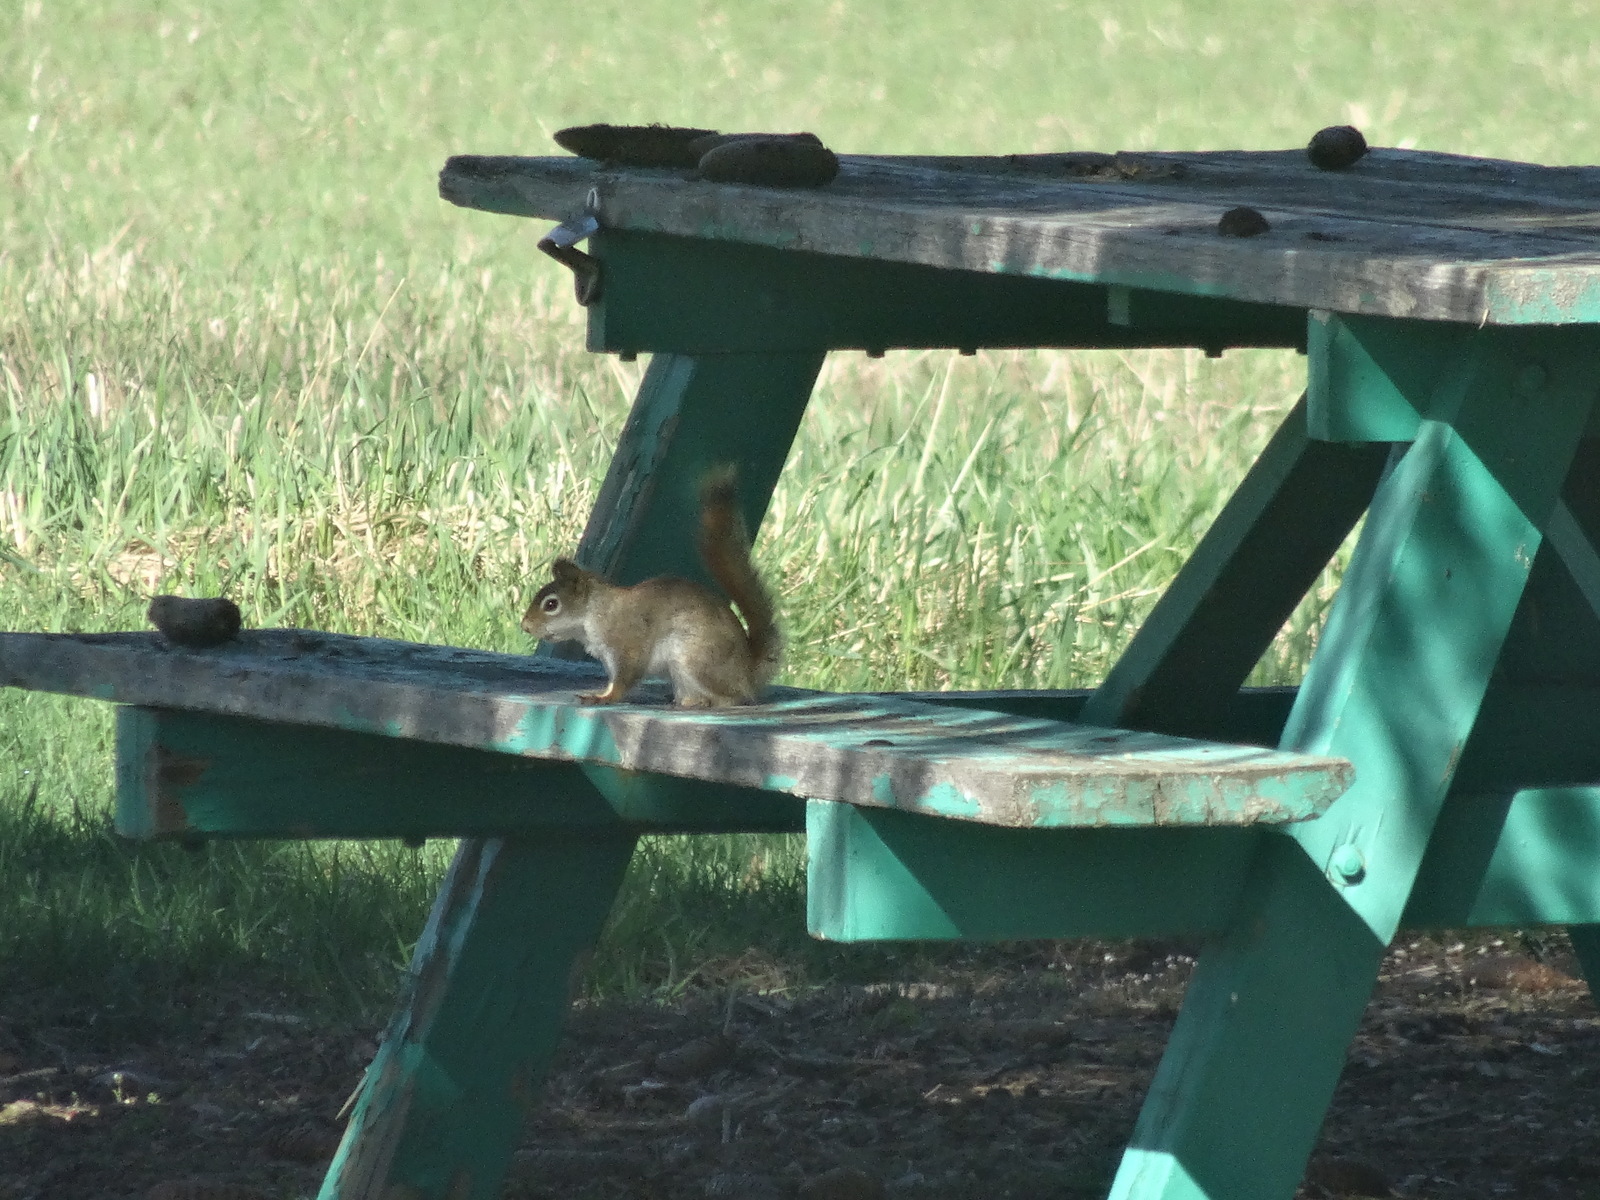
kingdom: Animalia
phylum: Chordata
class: Mammalia
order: Rodentia
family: Sciuridae
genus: Tamiasciurus
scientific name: Tamiasciurus hudsonicus
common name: Red squirrel
